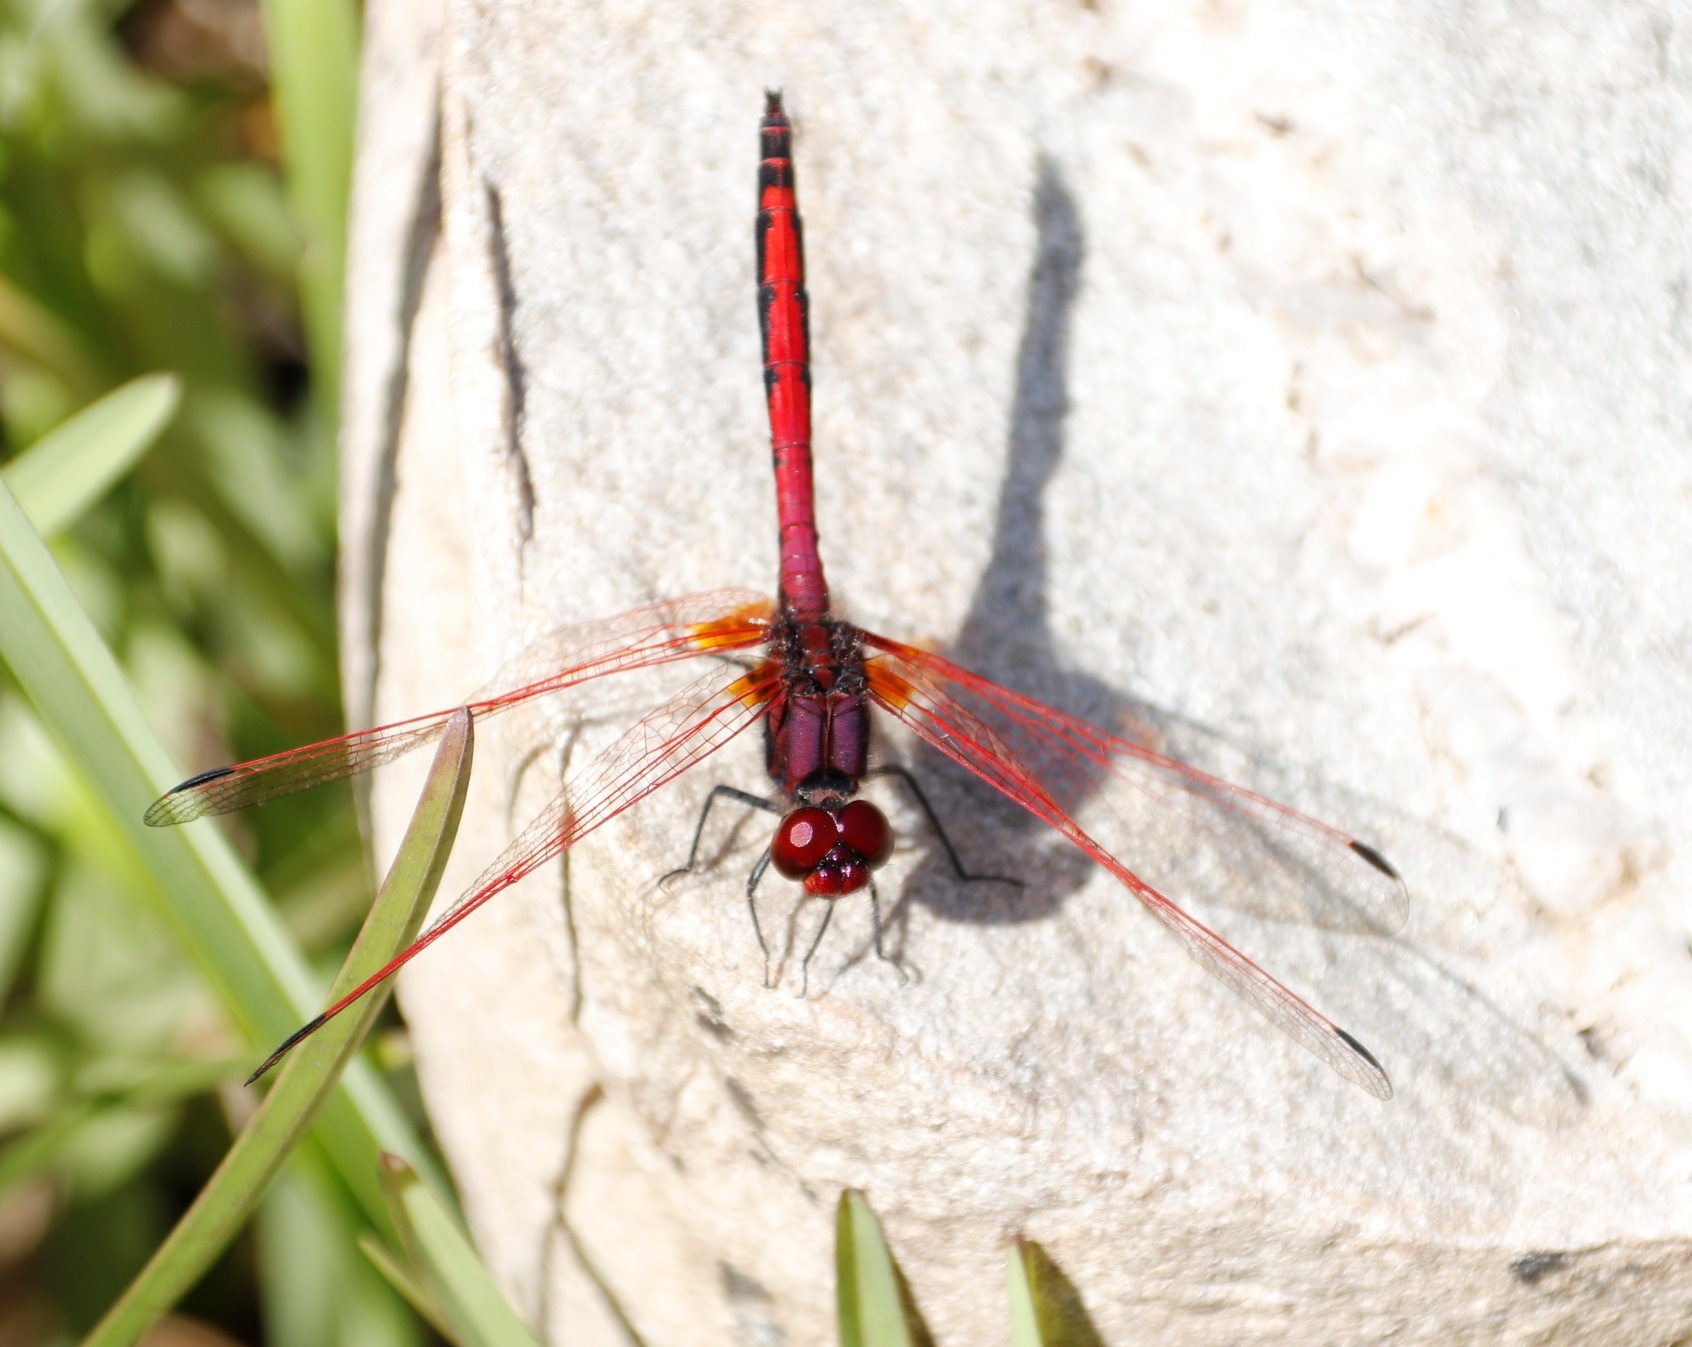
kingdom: Animalia
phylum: Arthropoda
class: Insecta
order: Odonata
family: Libellulidae
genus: Trithemis
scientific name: Trithemis arteriosa
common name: Red-veined dropwing
